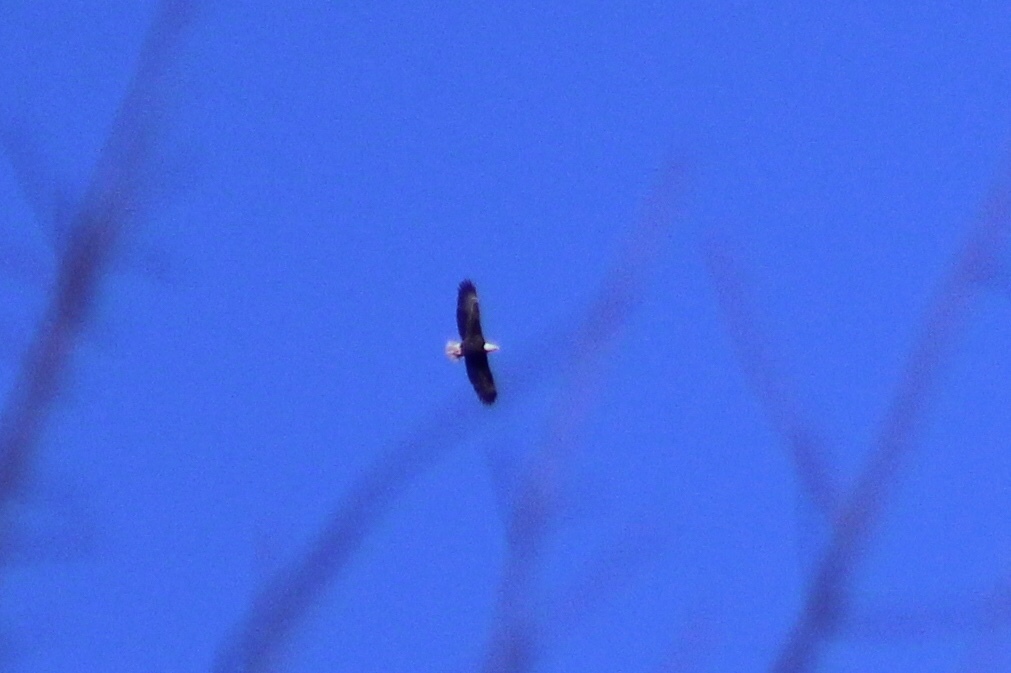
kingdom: Animalia
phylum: Chordata
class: Aves
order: Accipitriformes
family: Accipitridae
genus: Haliaeetus
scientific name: Haliaeetus leucocephalus
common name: Bald eagle
